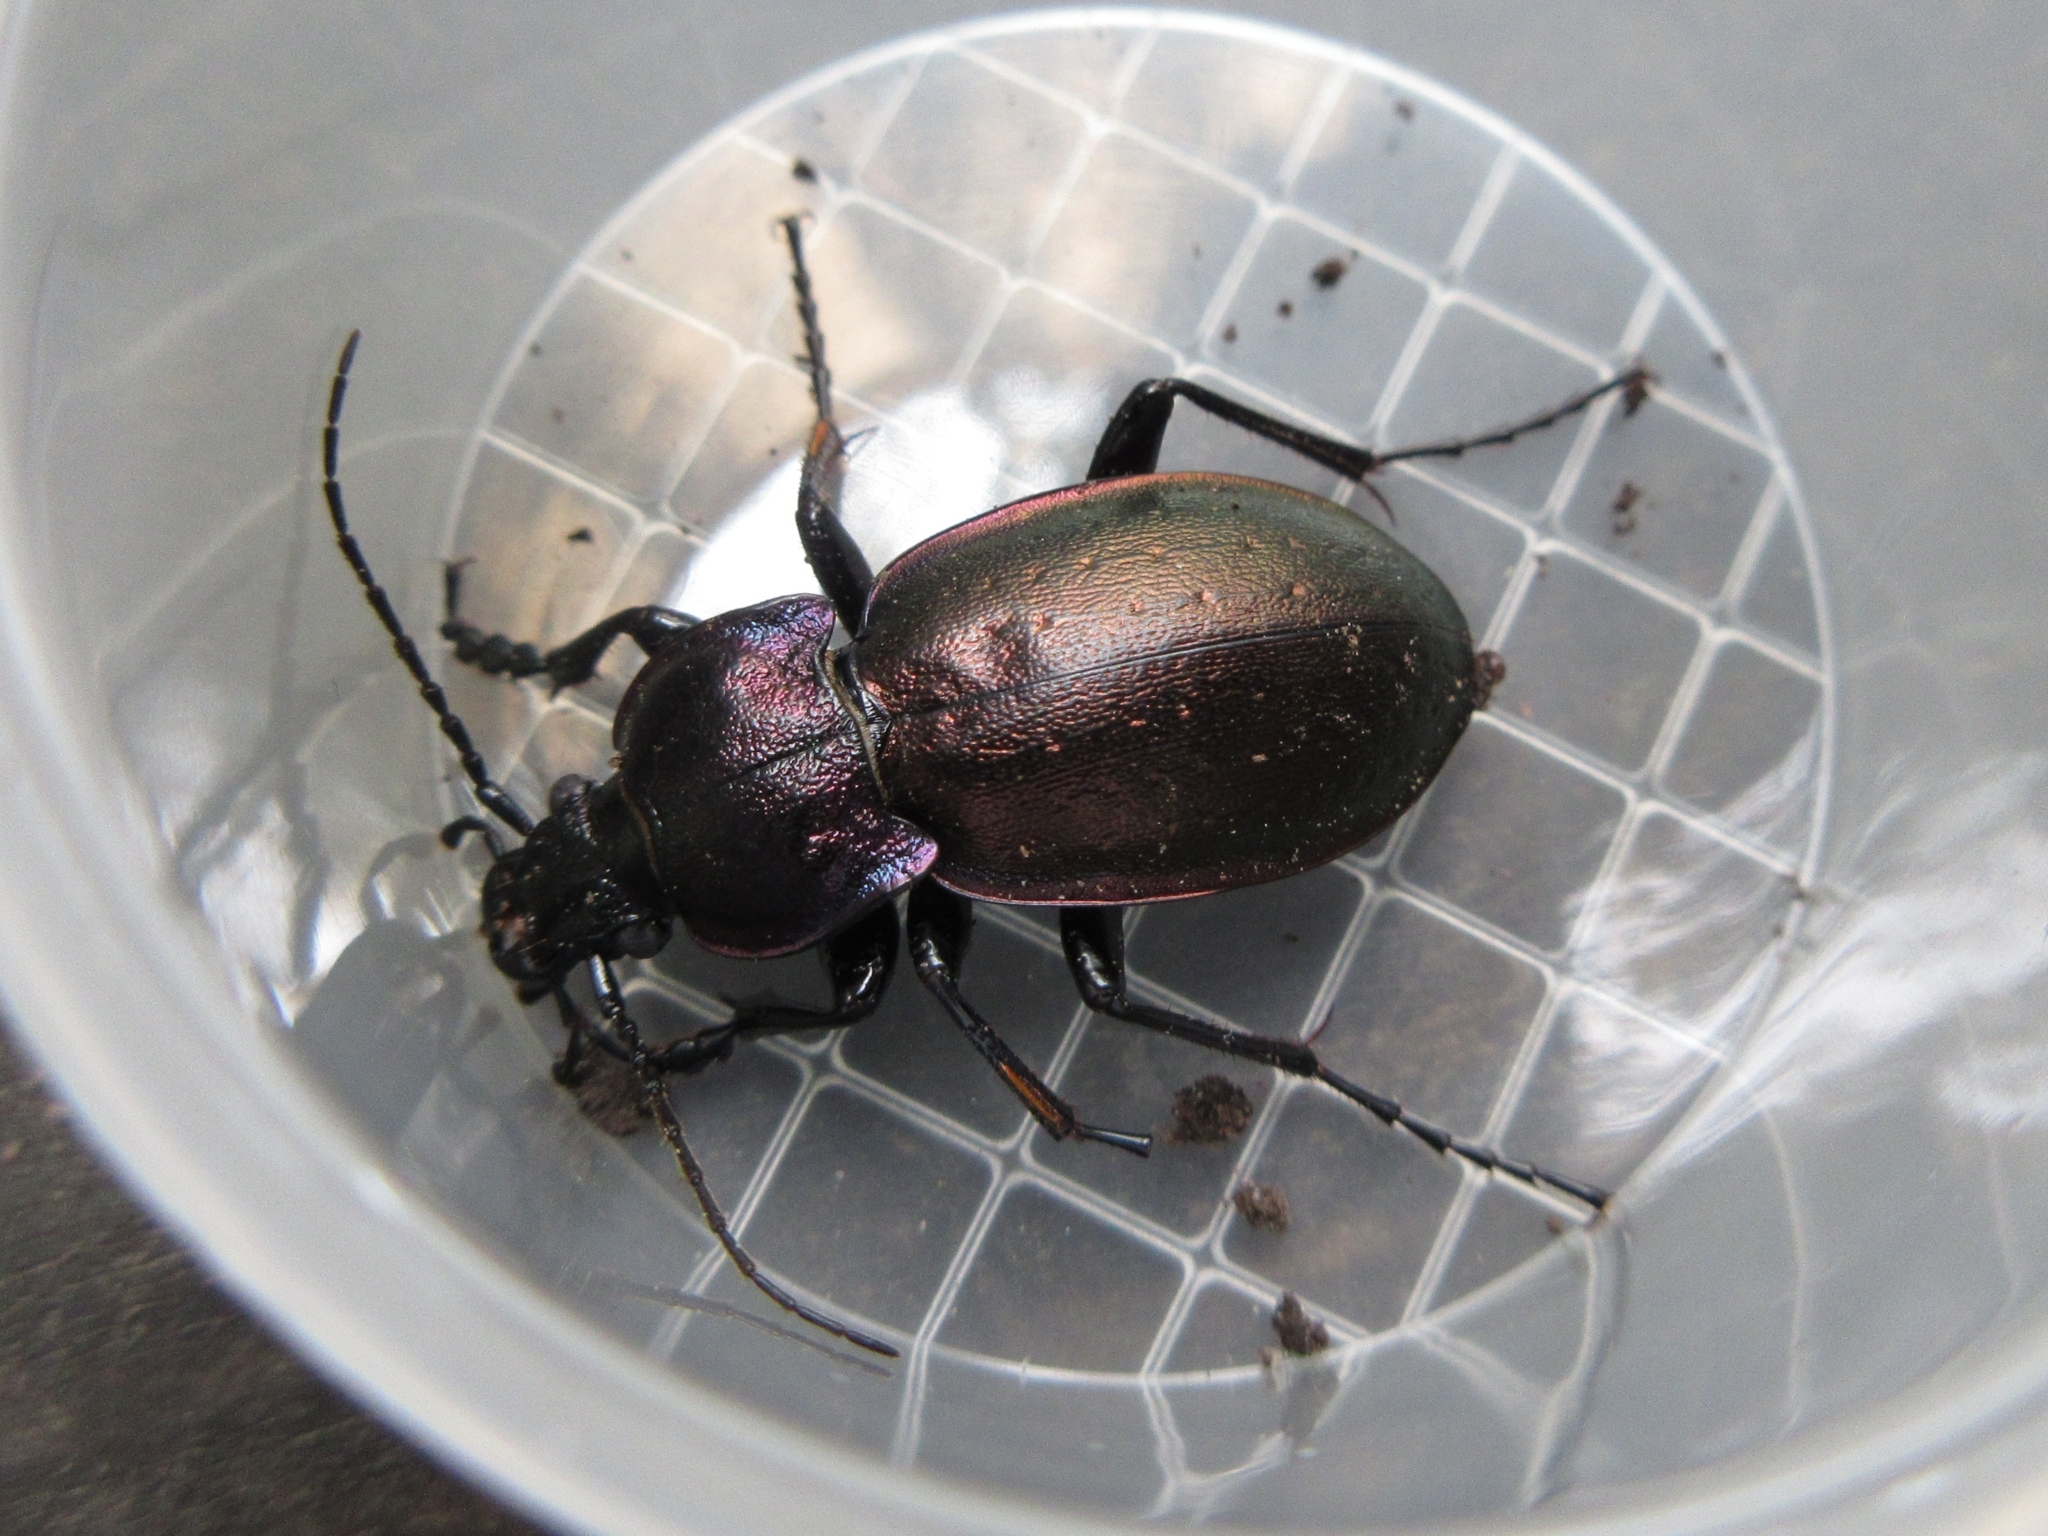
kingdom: Animalia
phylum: Arthropoda
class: Insecta
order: Coleoptera
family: Carabidae
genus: Carabus
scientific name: Carabus nemoralis
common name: European ground beetle
